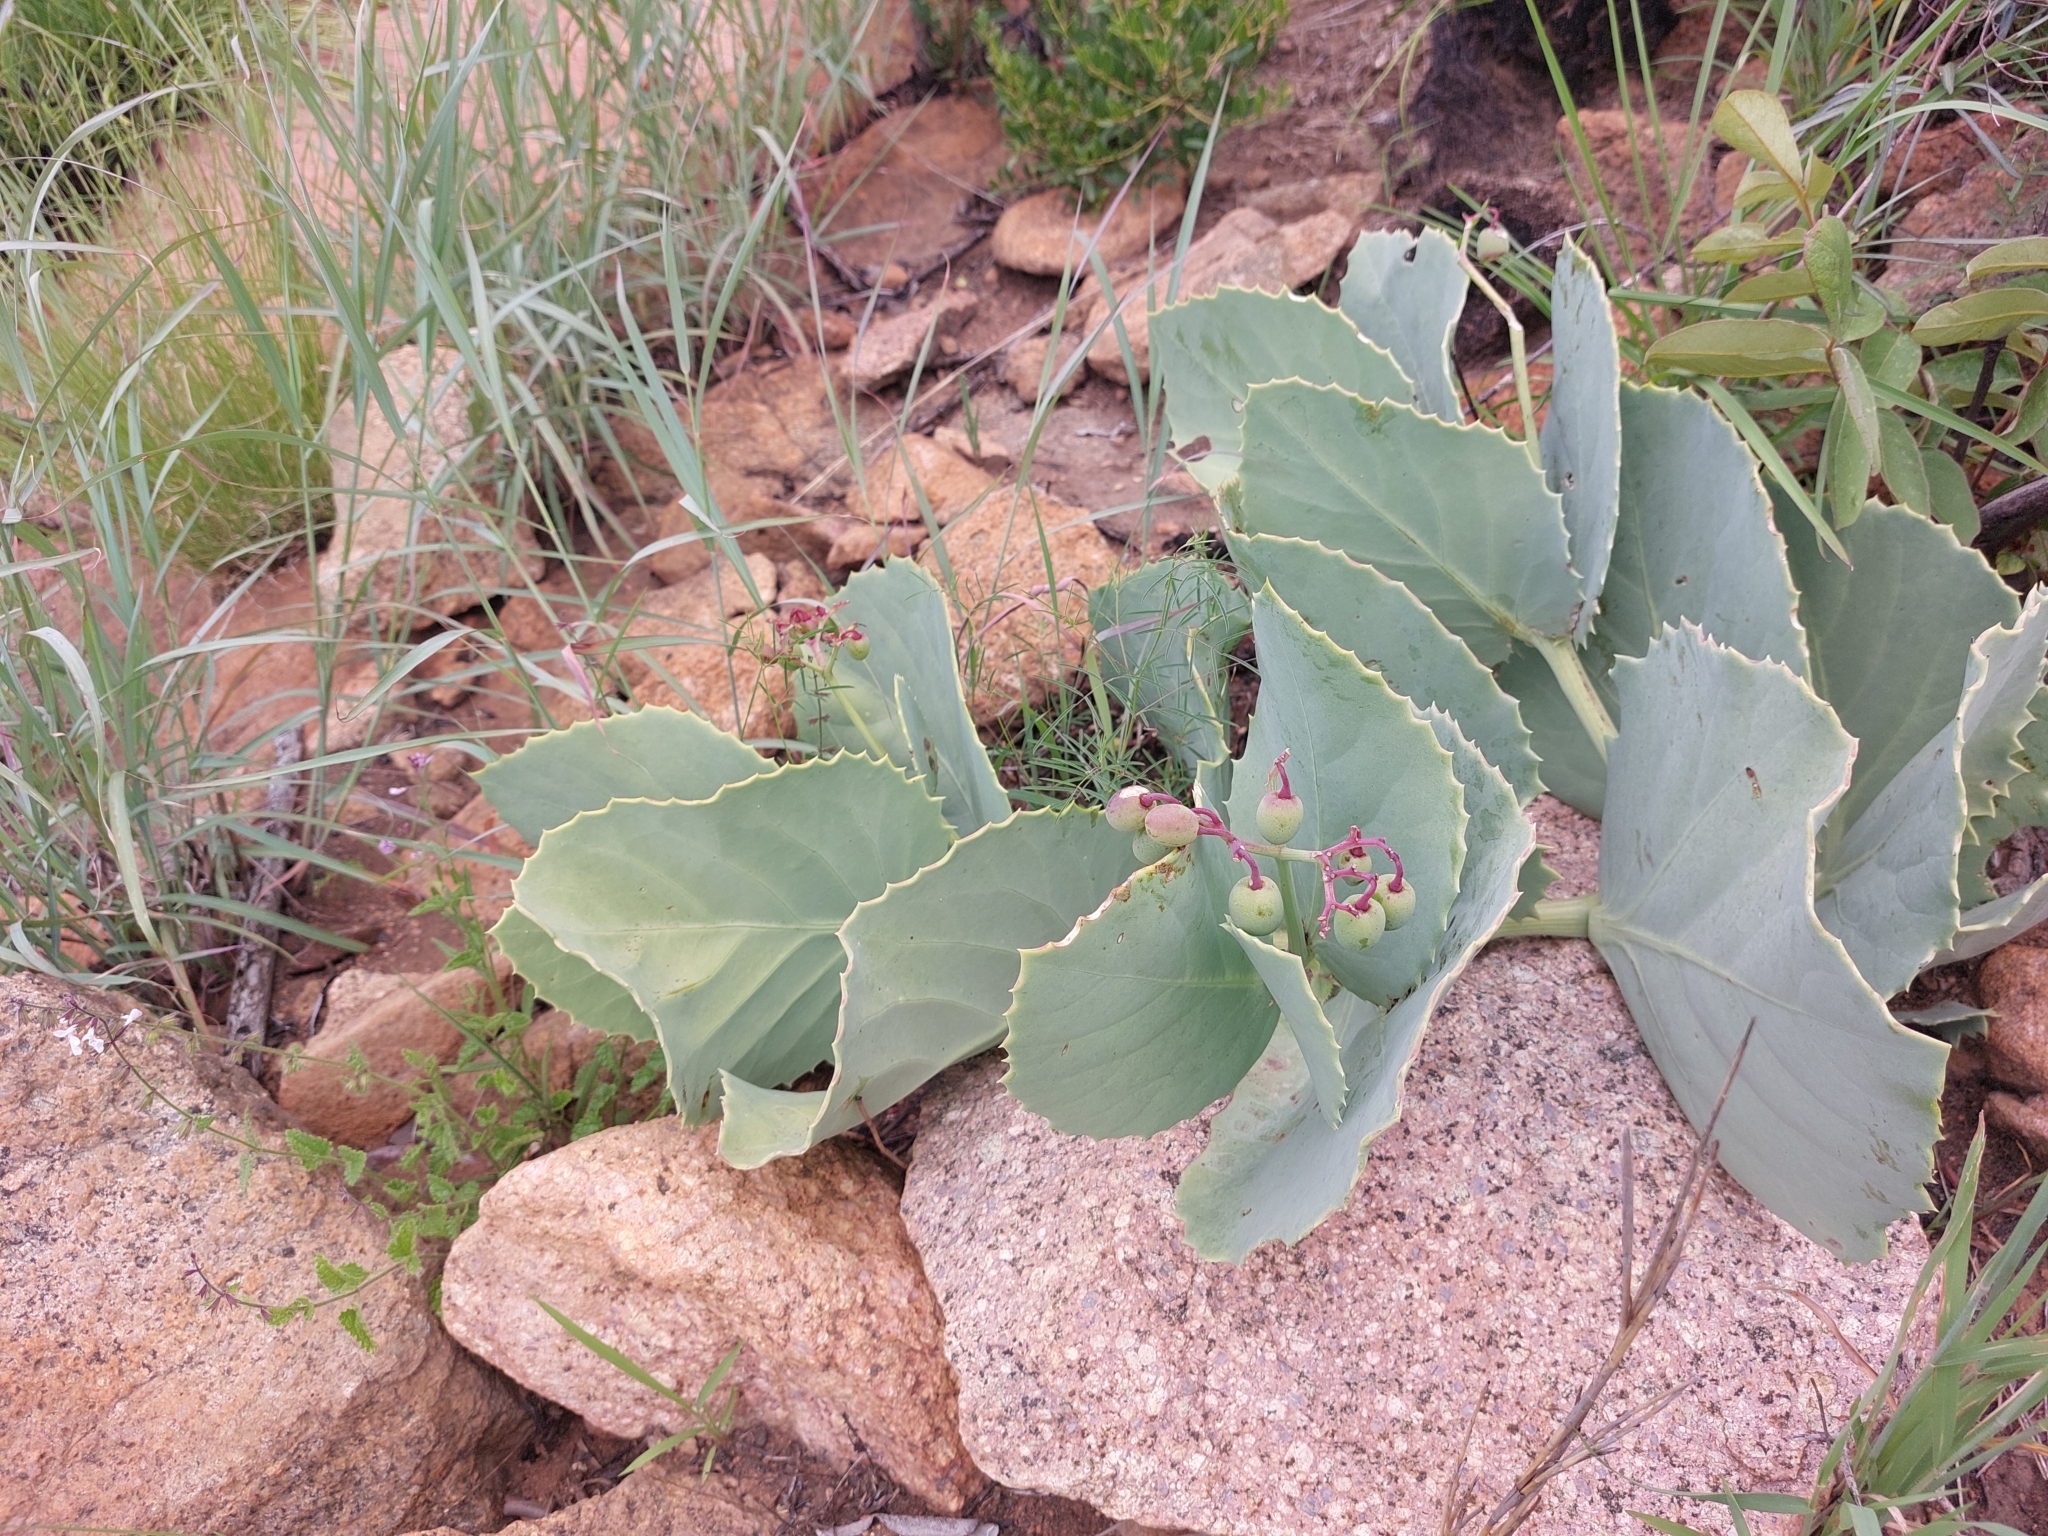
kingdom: Plantae
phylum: Tracheophyta
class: Magnoliopsida
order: Vitales
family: Vitaceae
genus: Cyphostemma
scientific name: Cyphostemma oleraceum
